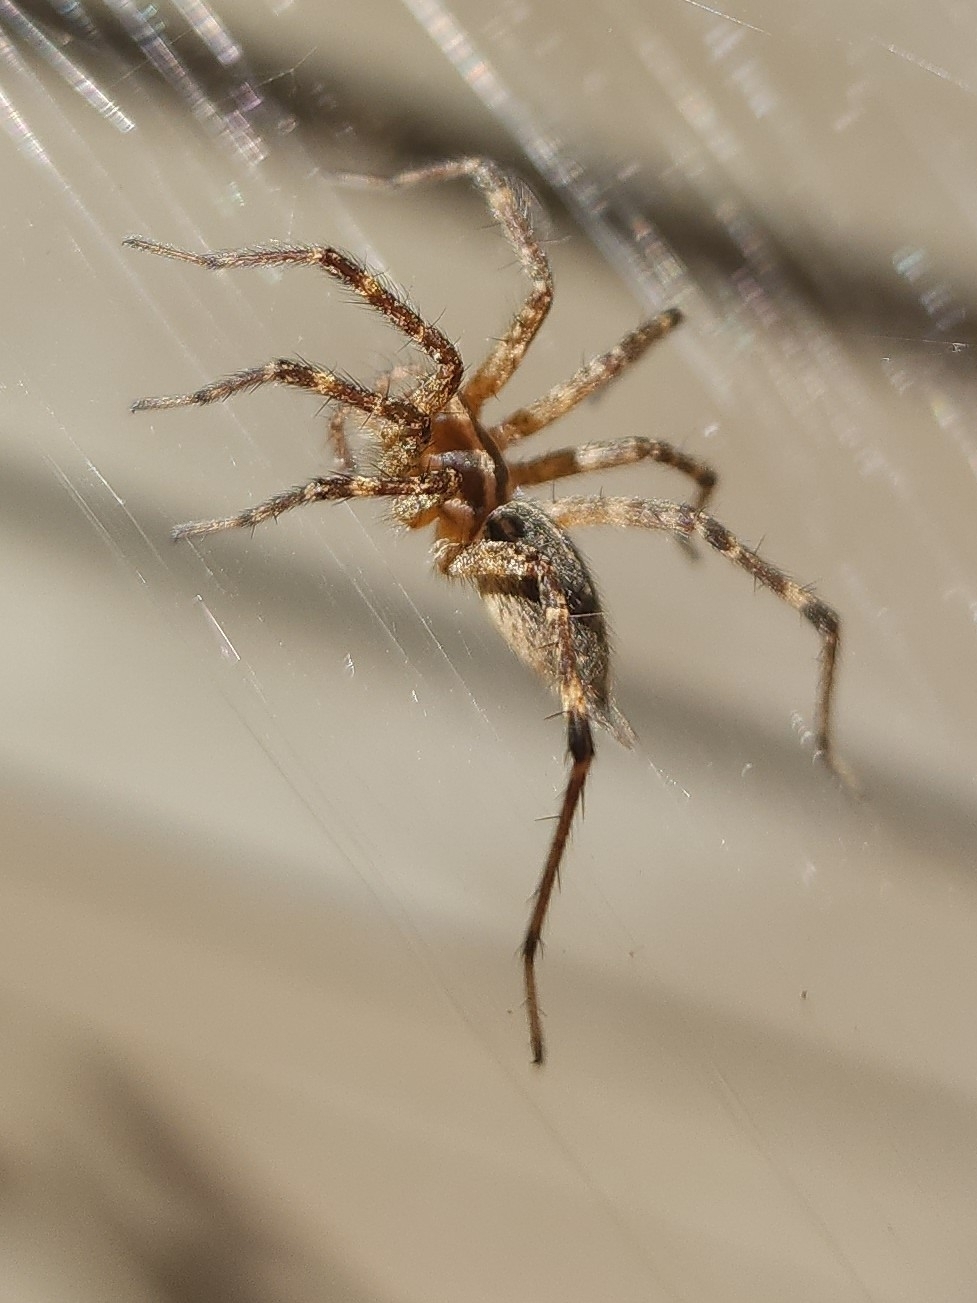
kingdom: Animalia
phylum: Arthropoda
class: Arachnida
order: Araneae
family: Agelenidae
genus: Agelenopsis
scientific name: Agelenopsis
